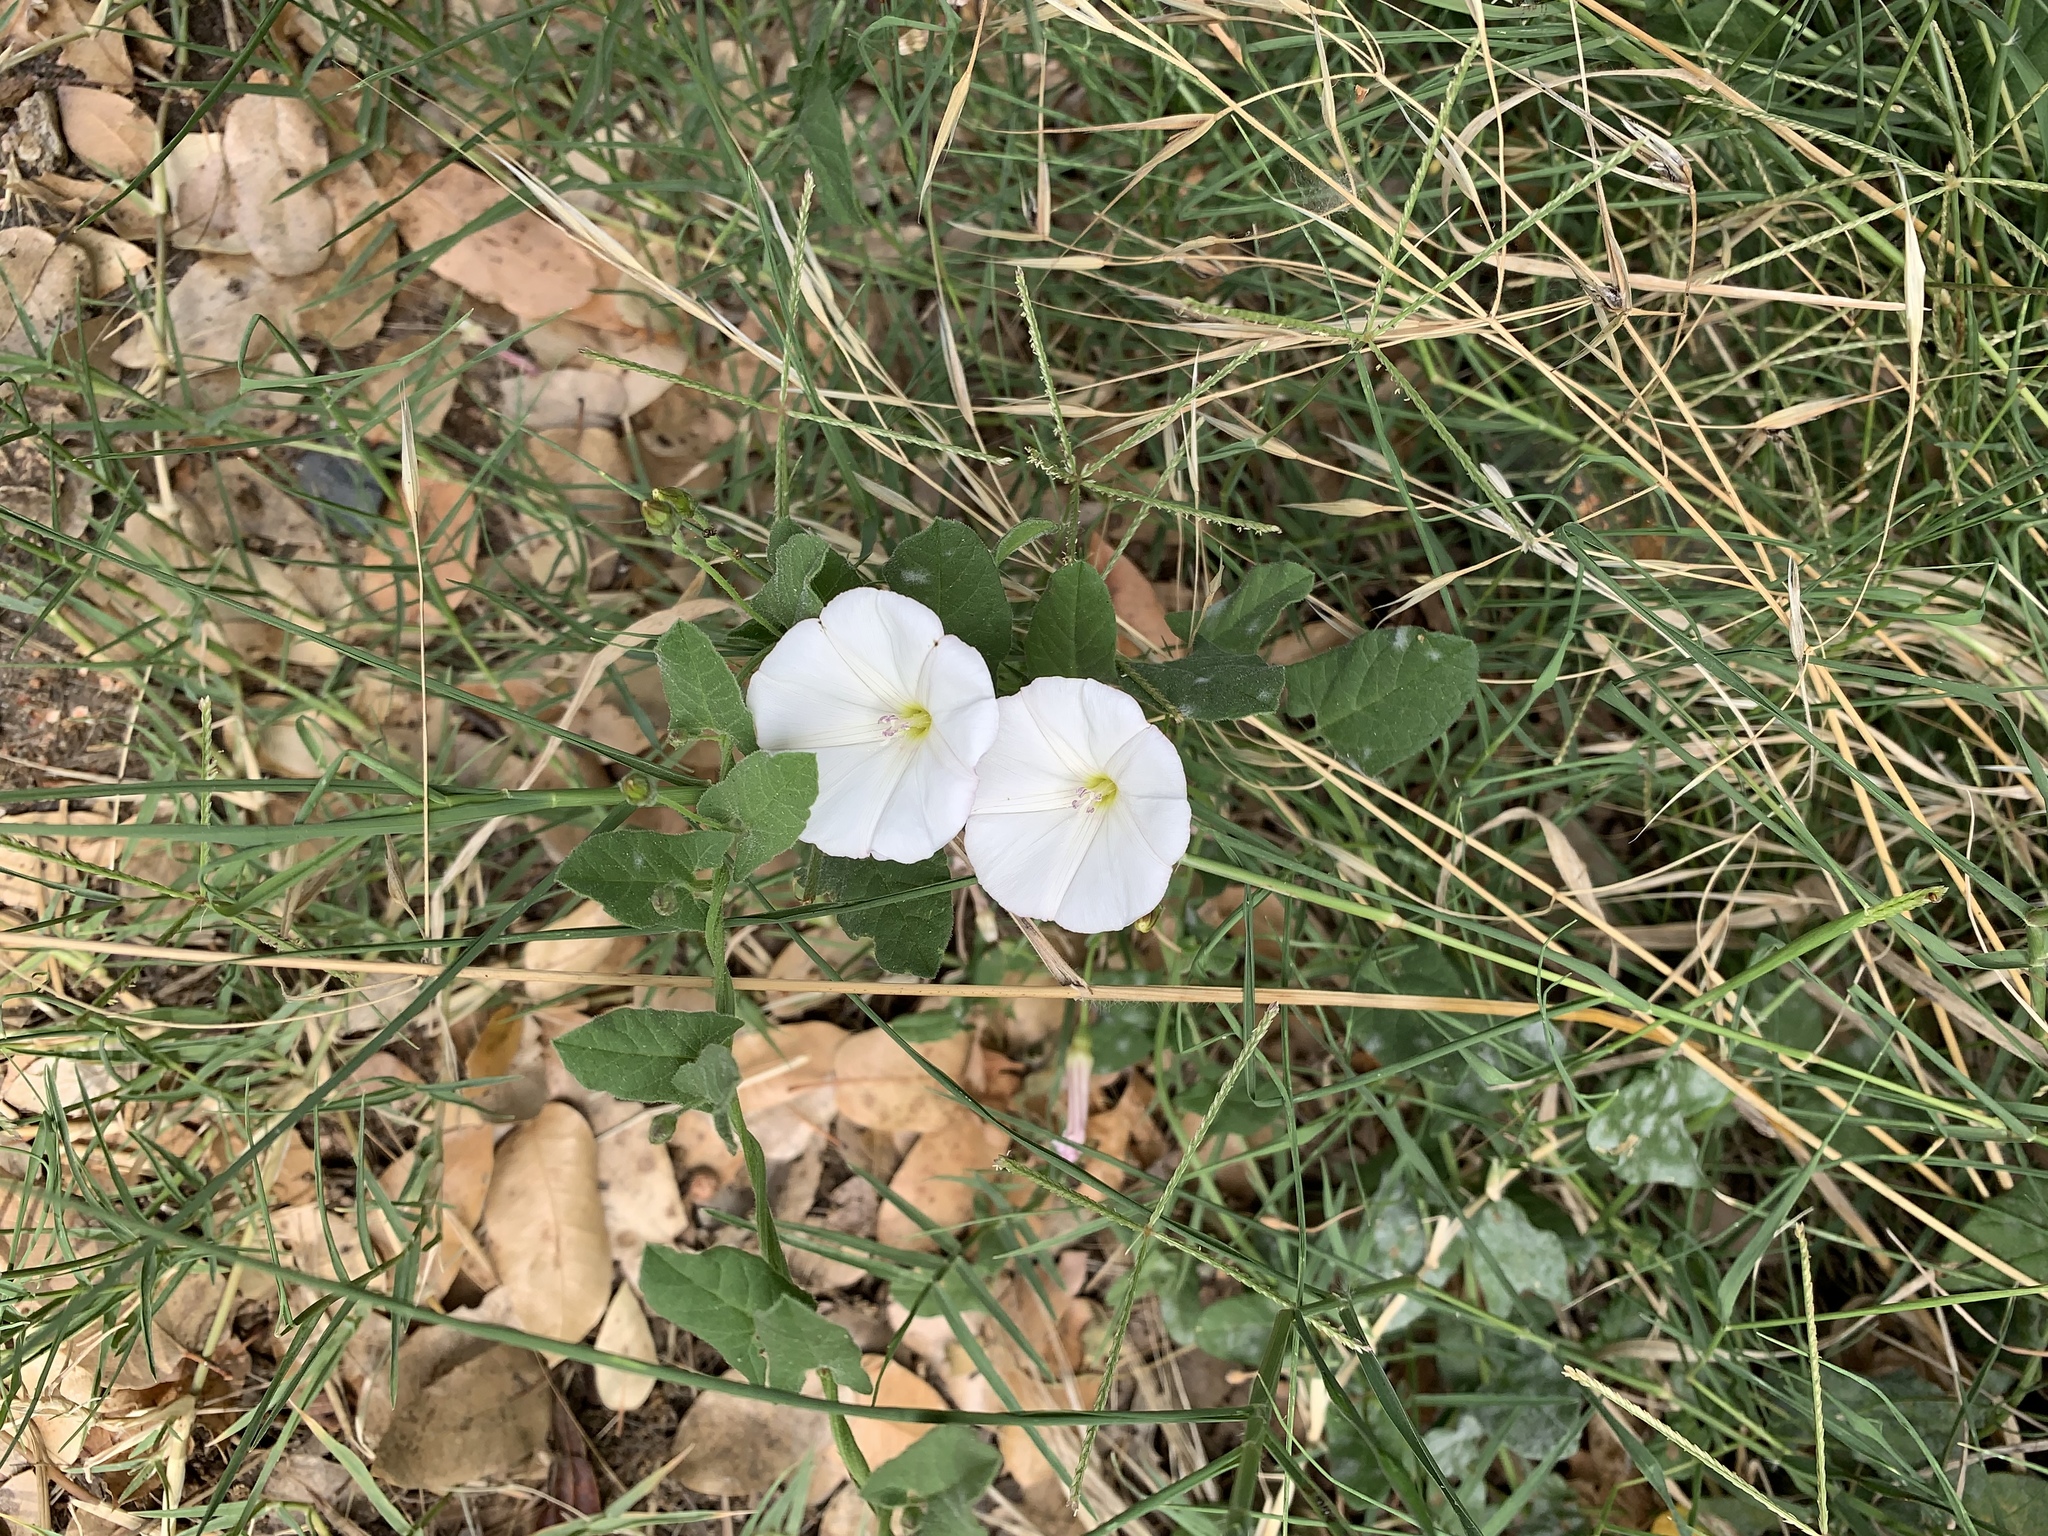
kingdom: Plantae
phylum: Tracheophyta
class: Magnoliopsida
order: Solanales
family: Convolvulaceae
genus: Convolvulus
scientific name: Convolvulus arvensis
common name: Field bindweed
